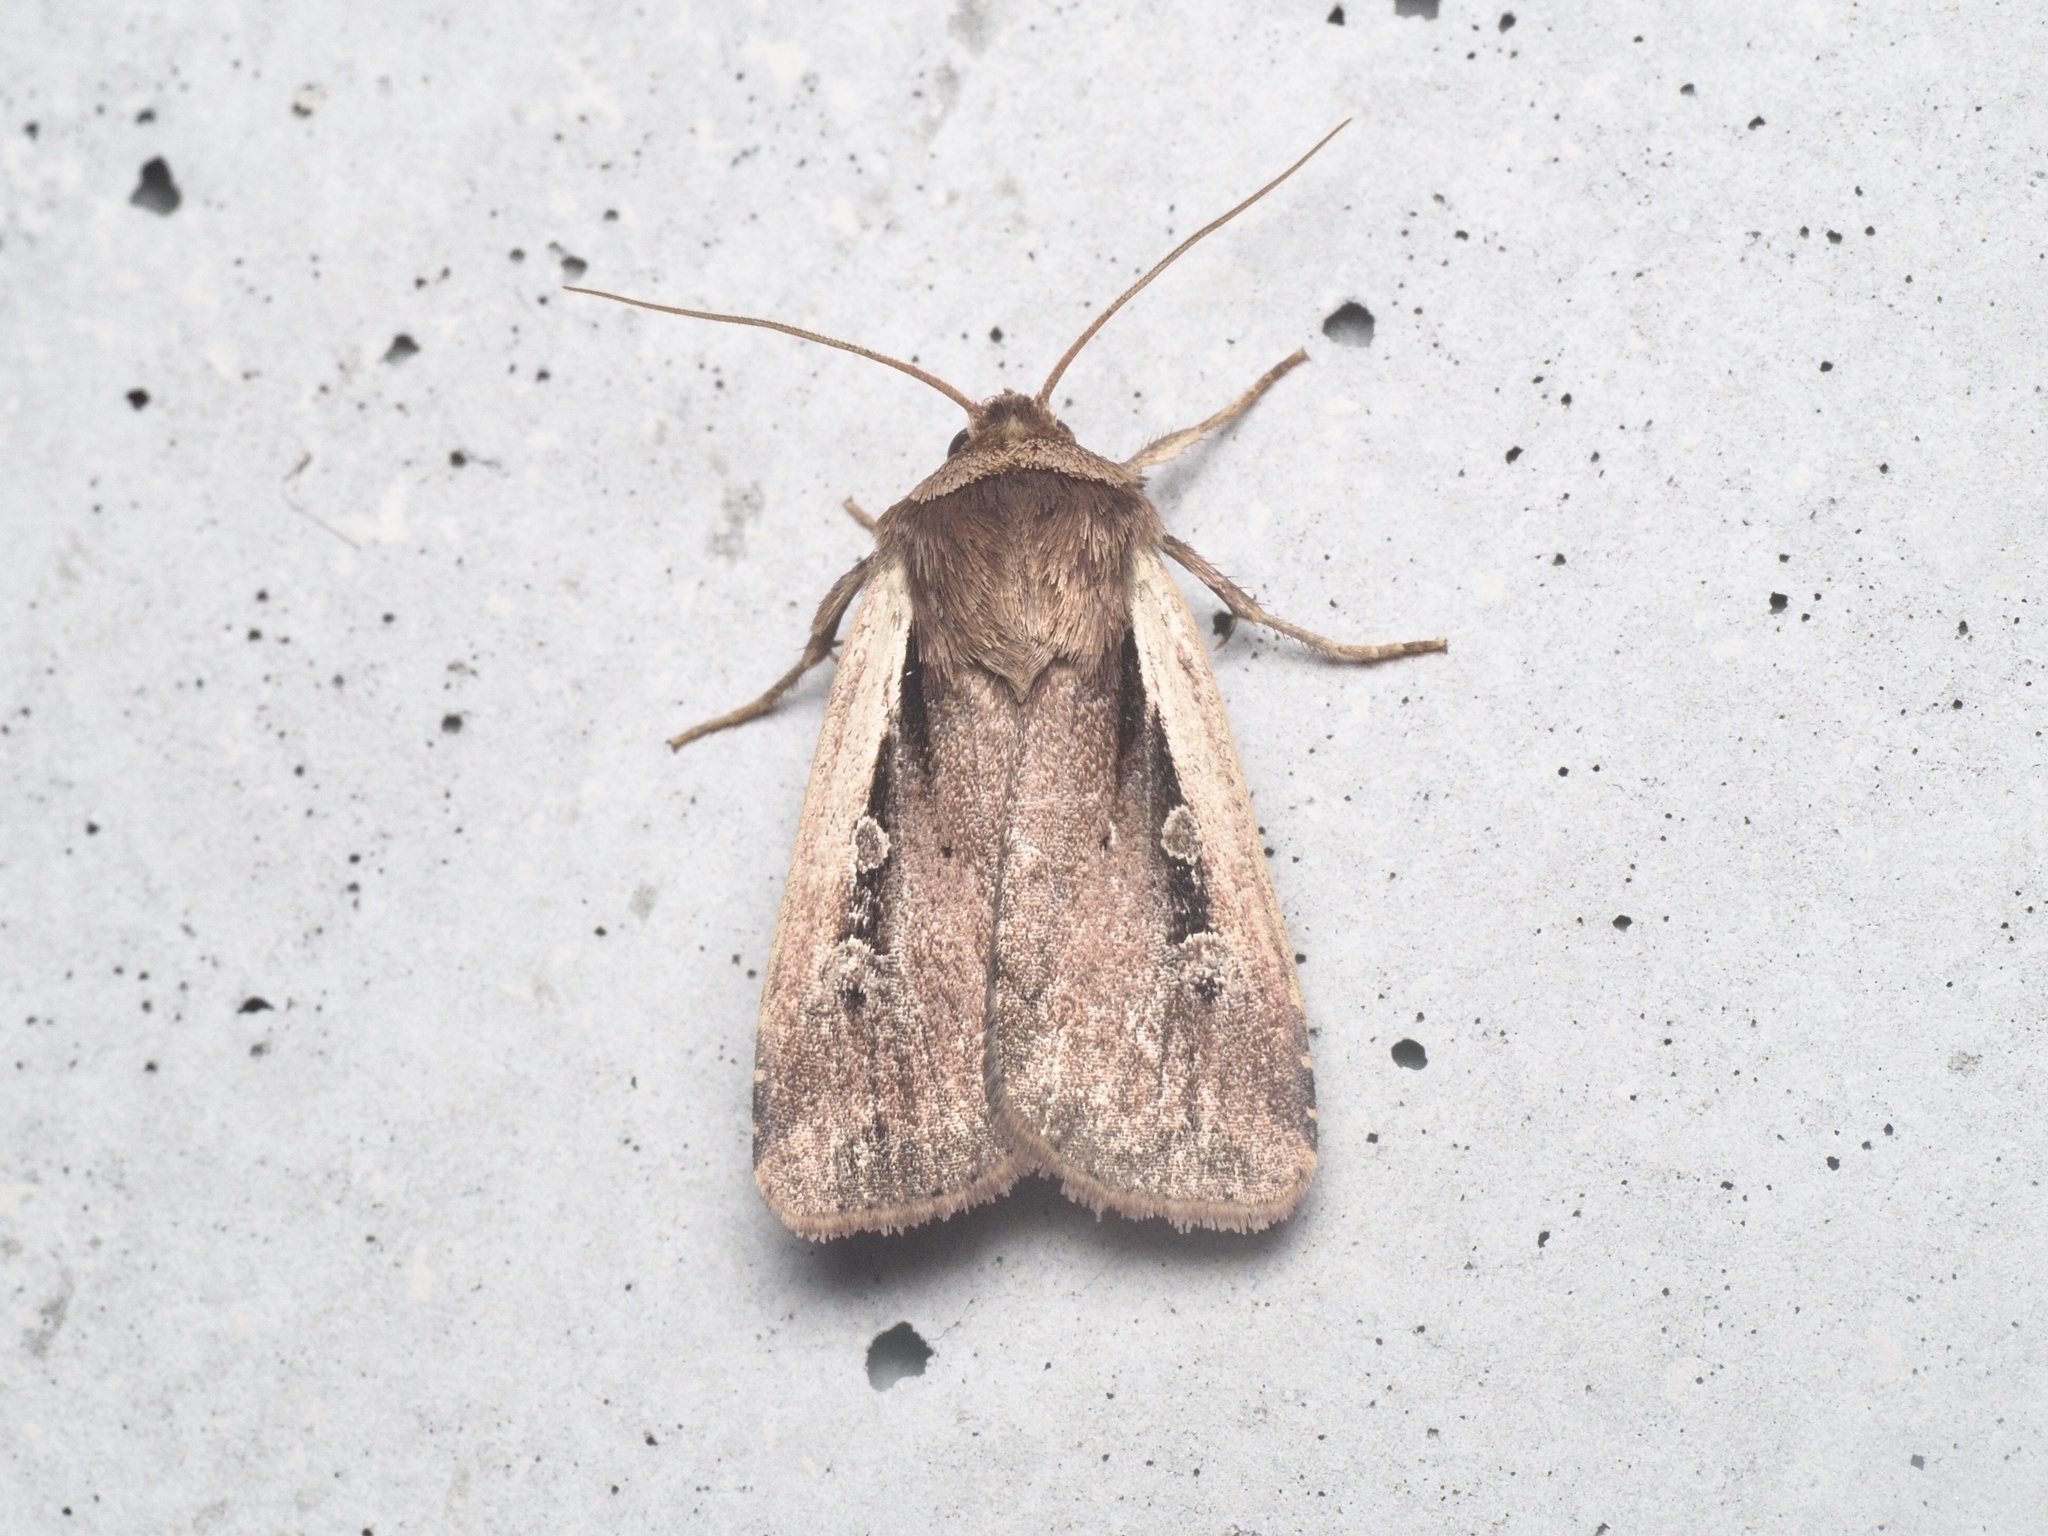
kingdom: Animalia
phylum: Arthropoda
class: Insecta
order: Lepidoptera
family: Noctuidae
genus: Ochropleura
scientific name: Ochropleura plecta
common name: Flame shoulder
